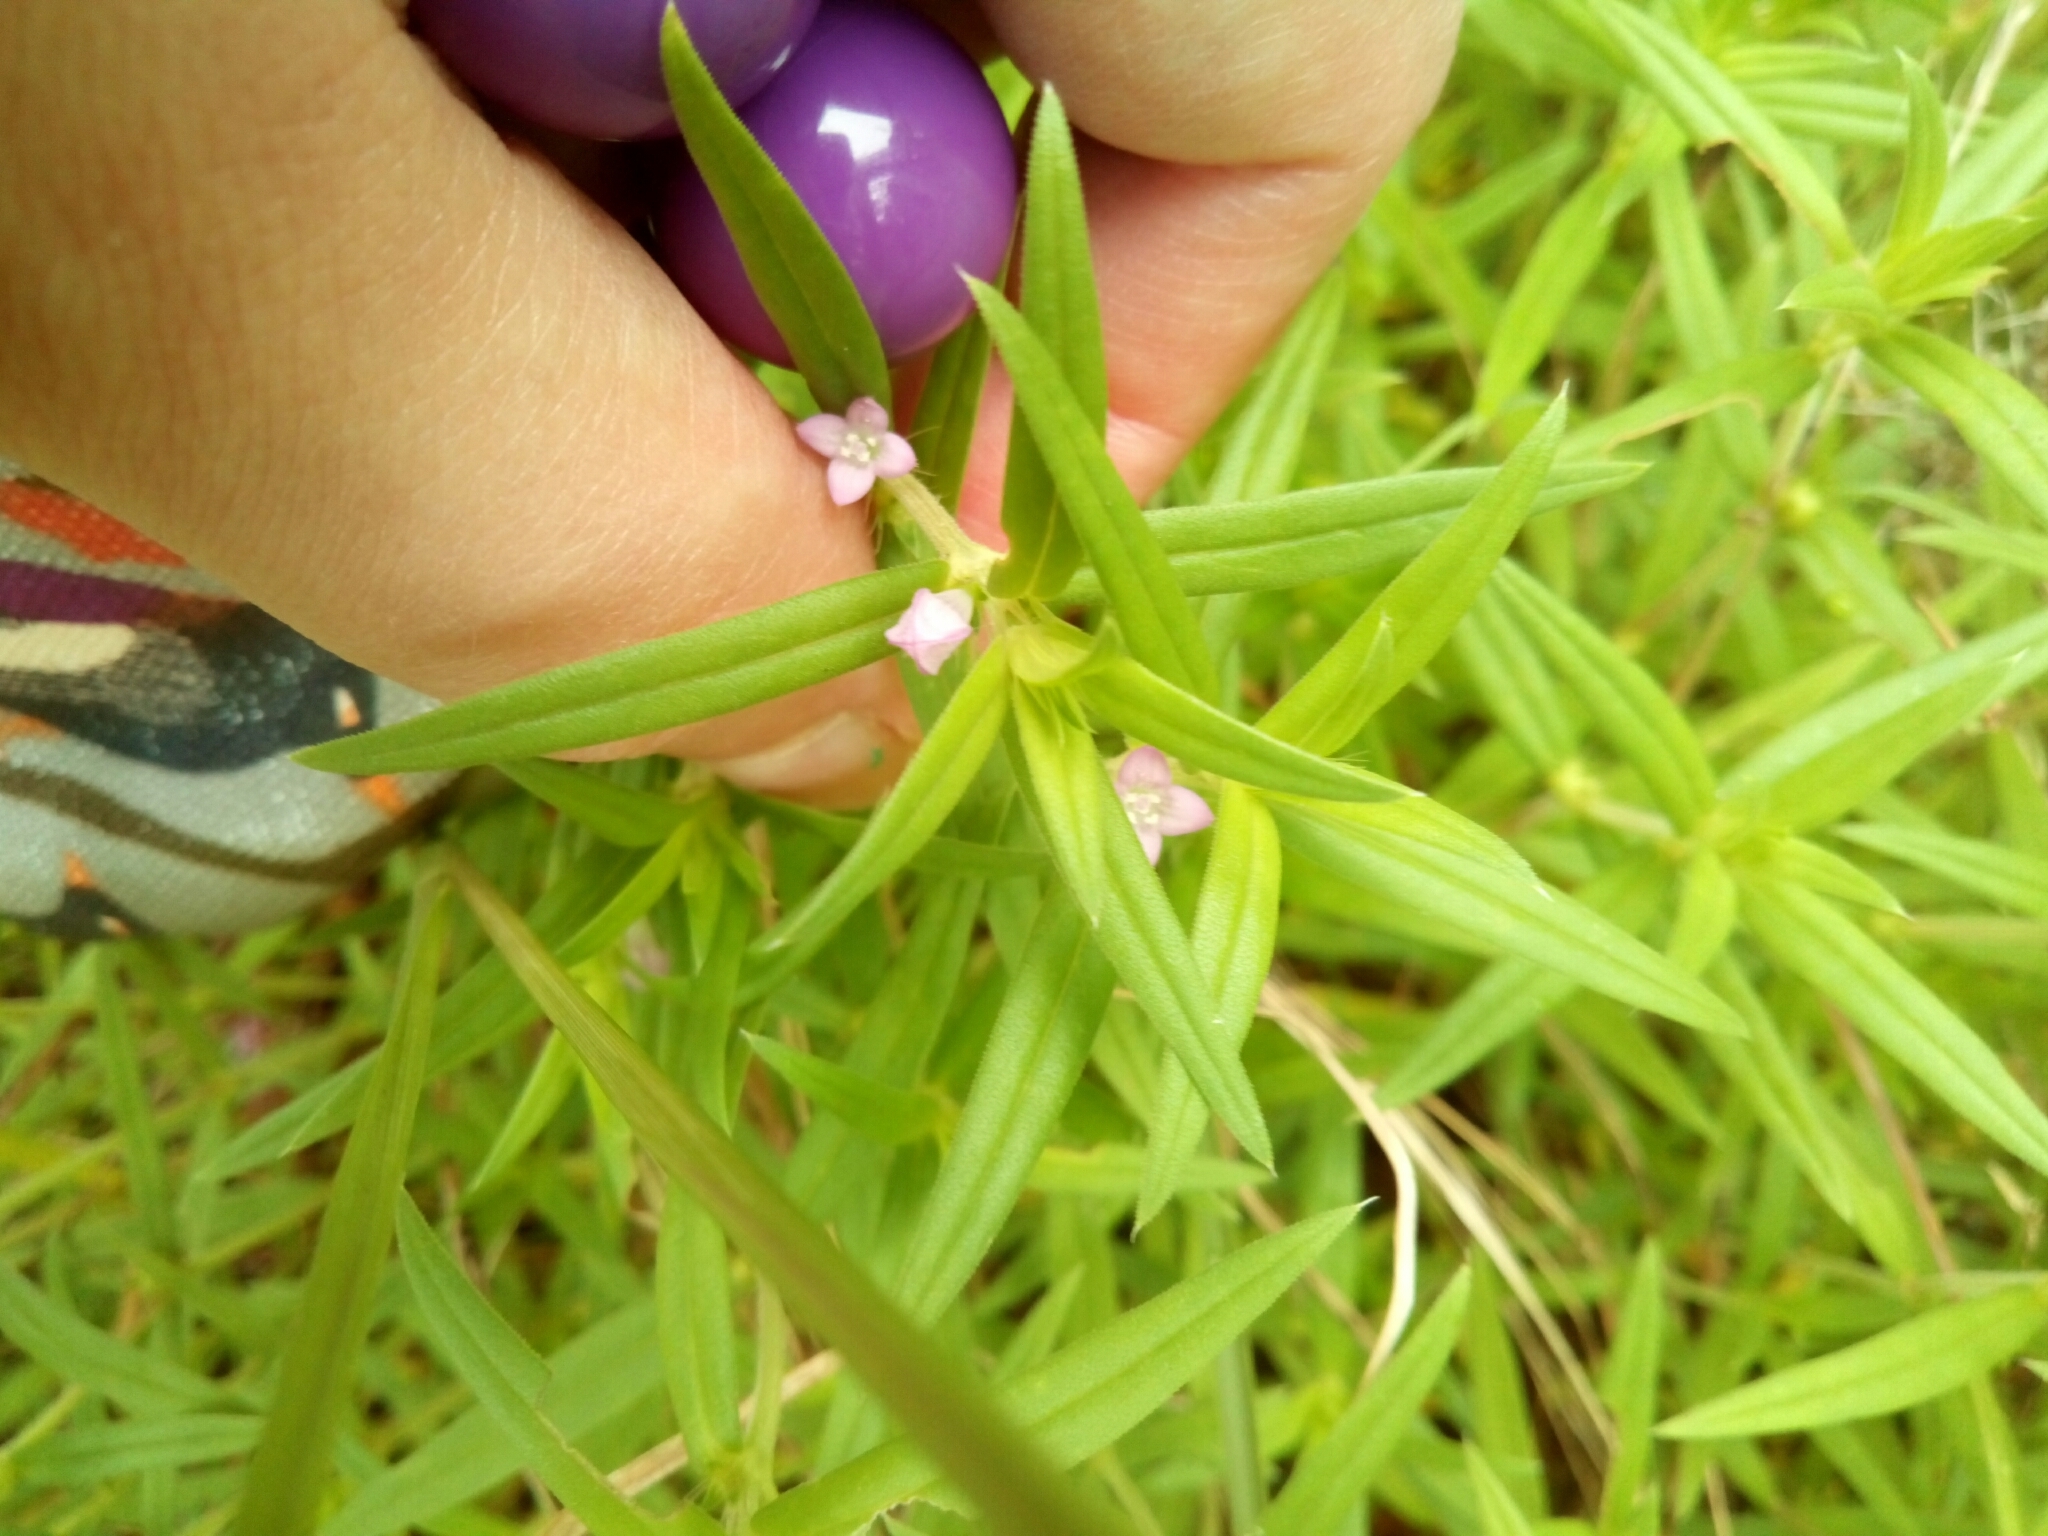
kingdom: Plantae
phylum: Tracheophyta
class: Magnoliopsida
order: Gentianales
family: Rubiaceae
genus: Hexasepalum
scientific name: Hexasepalum teres
